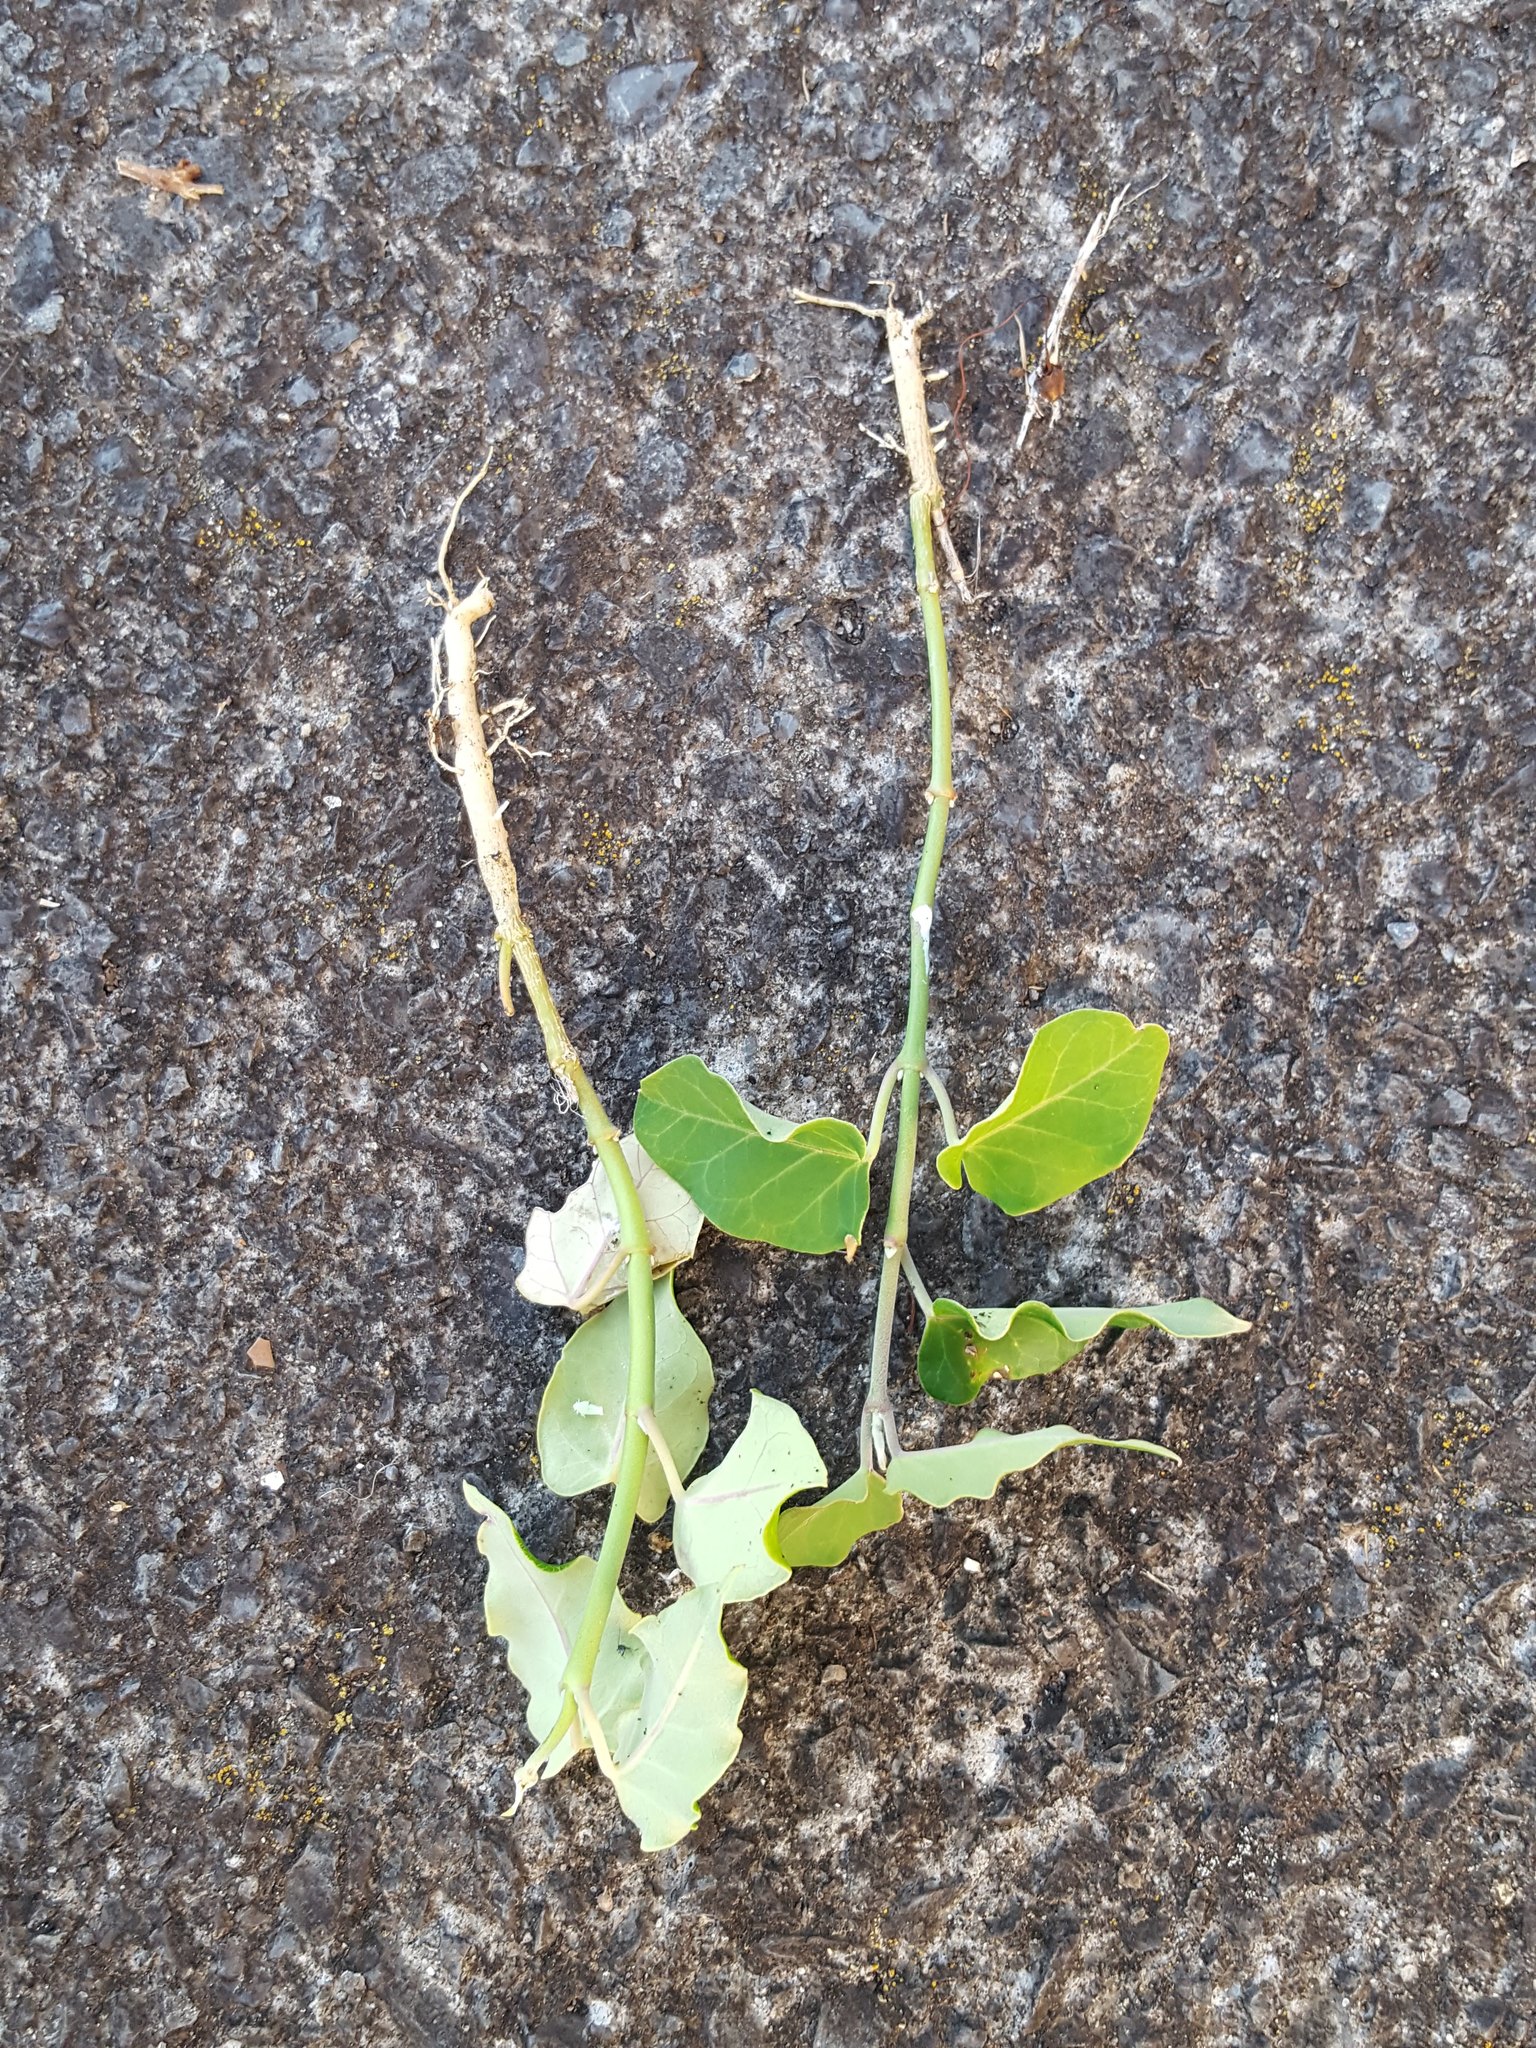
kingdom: Plantae
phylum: Tracheophyta
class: Magnoliopsida
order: Gentianales
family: Apocynaceae
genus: Araujia
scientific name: Araujia sericifera
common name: White bladderflower
